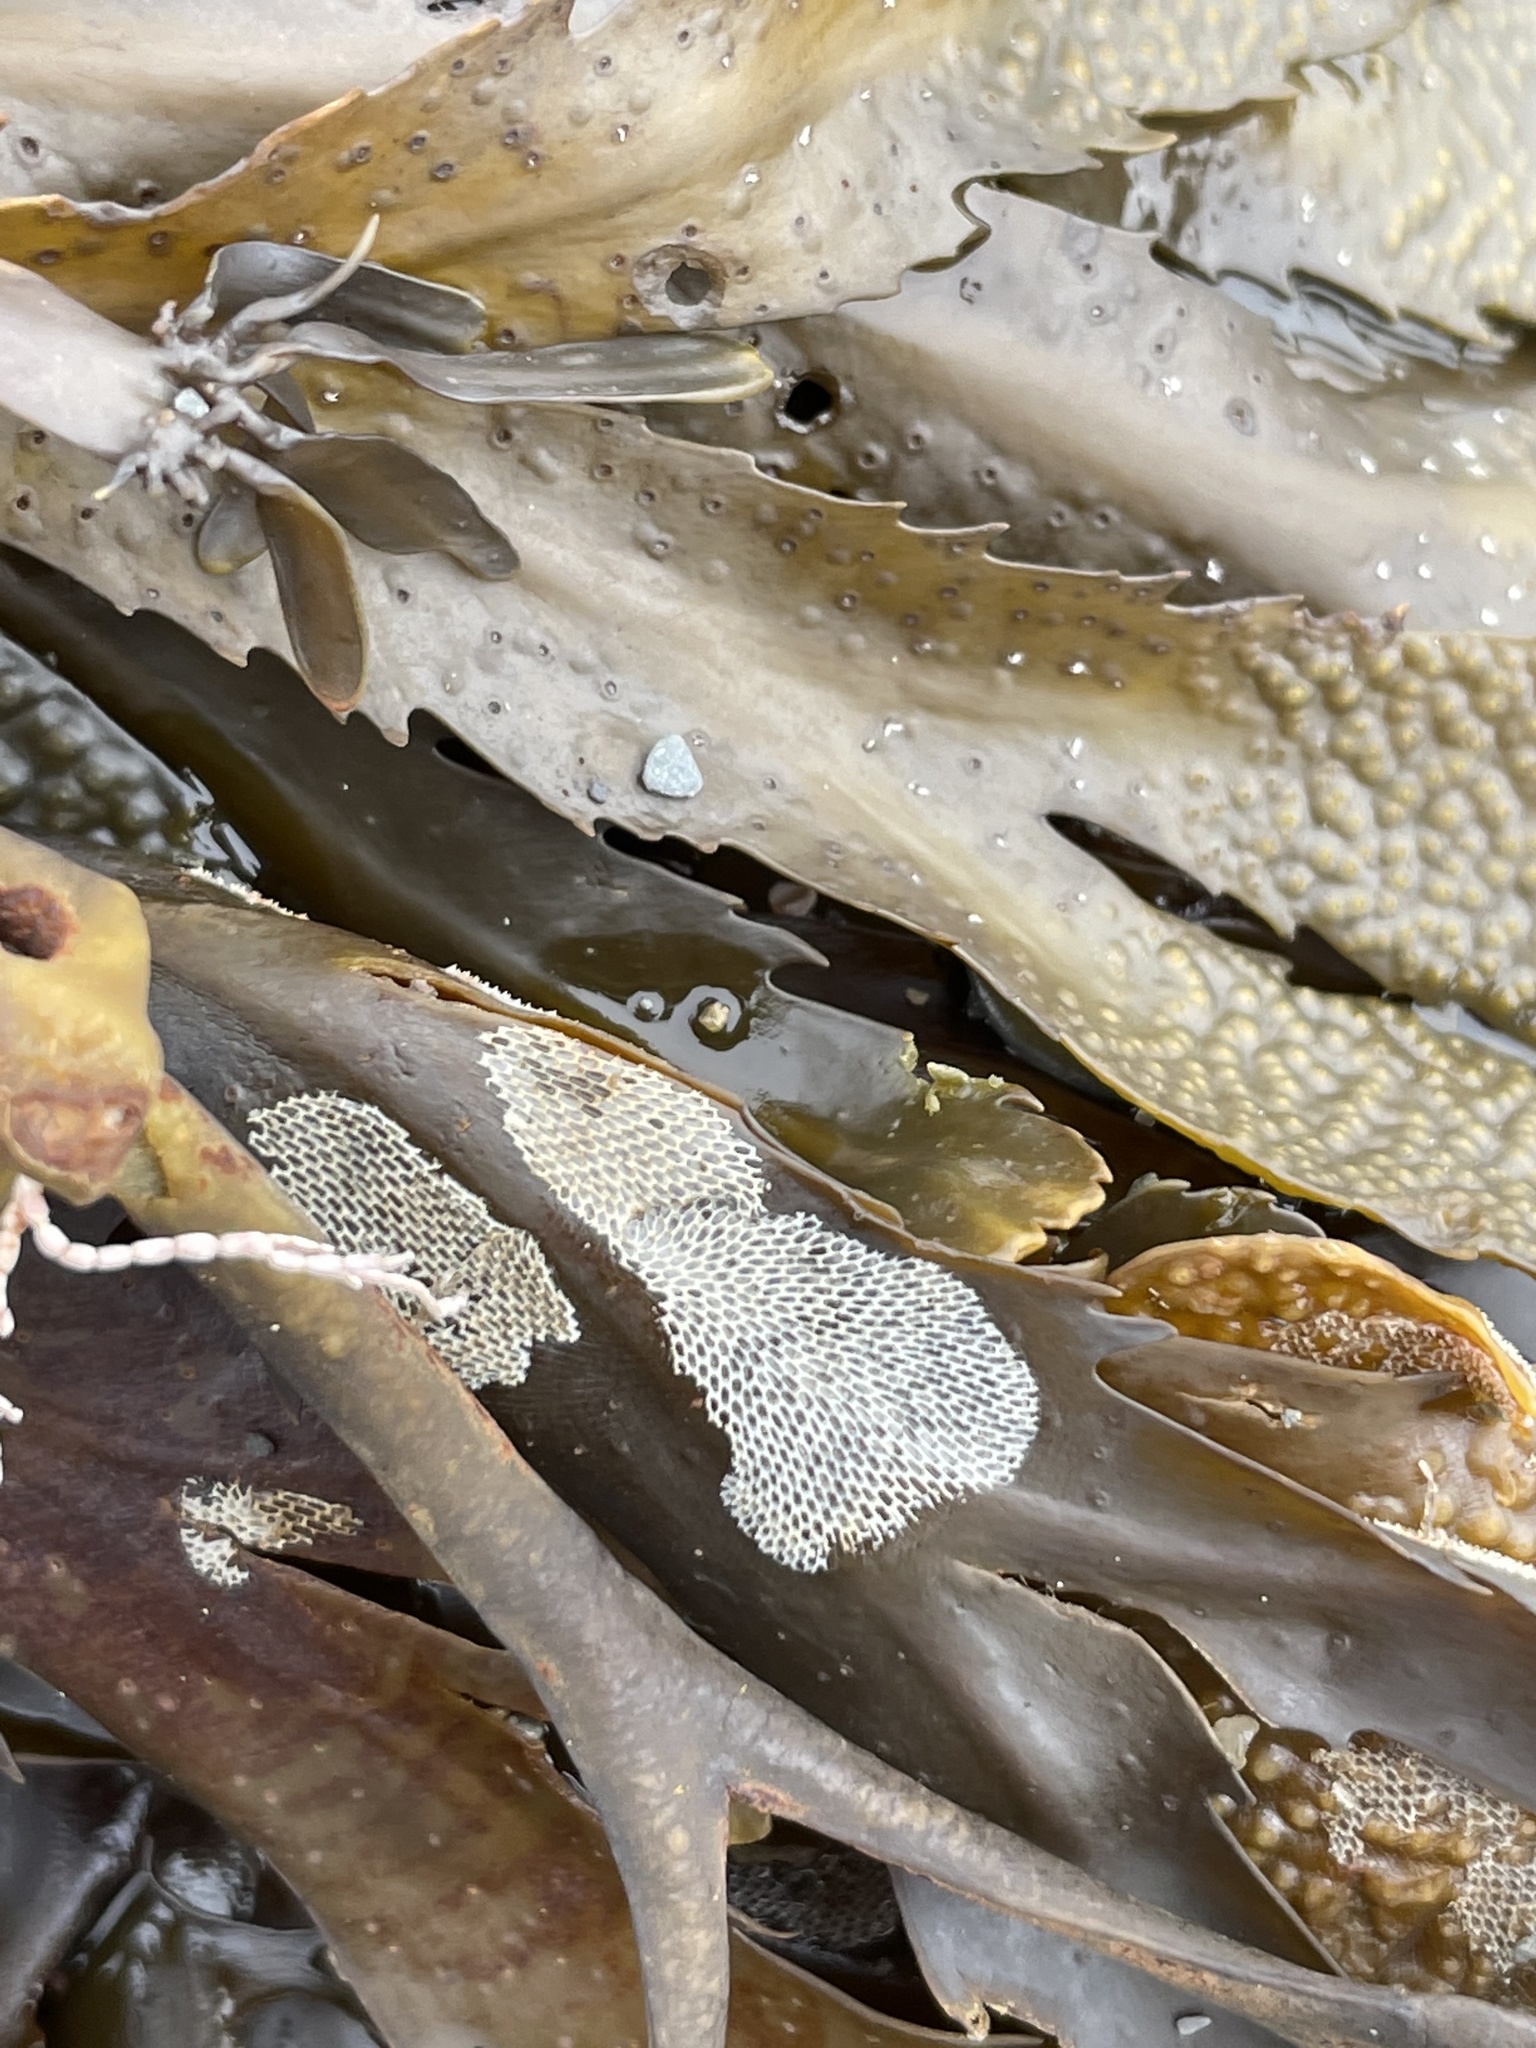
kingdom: Animalia
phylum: Bryozoa
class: Gymnolaemata
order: Cheilostomatida
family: Membraniporidae
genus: Membranipora
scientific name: Membranipora membranacea
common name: Sea mat
